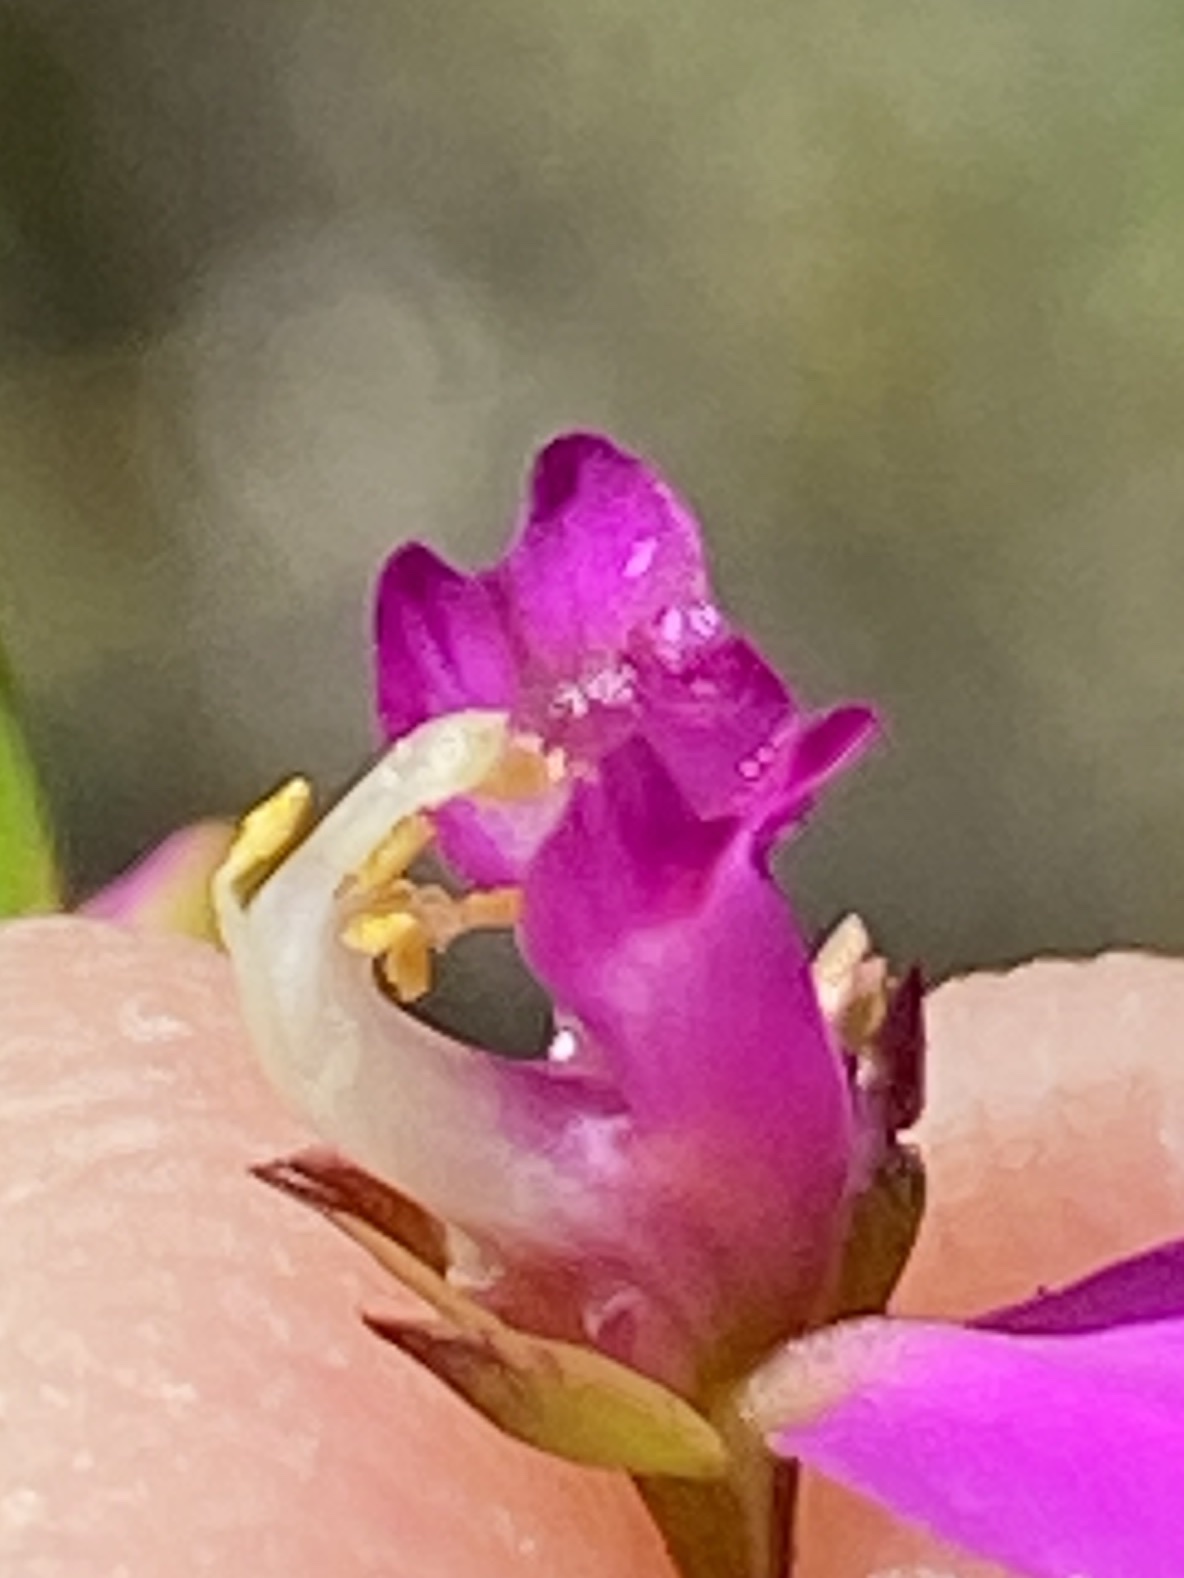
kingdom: Plantae
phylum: Tracheophyta
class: Magnoliopsida
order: Fabales
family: Polygalaceae
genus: Polygala
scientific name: Polygala refracta
